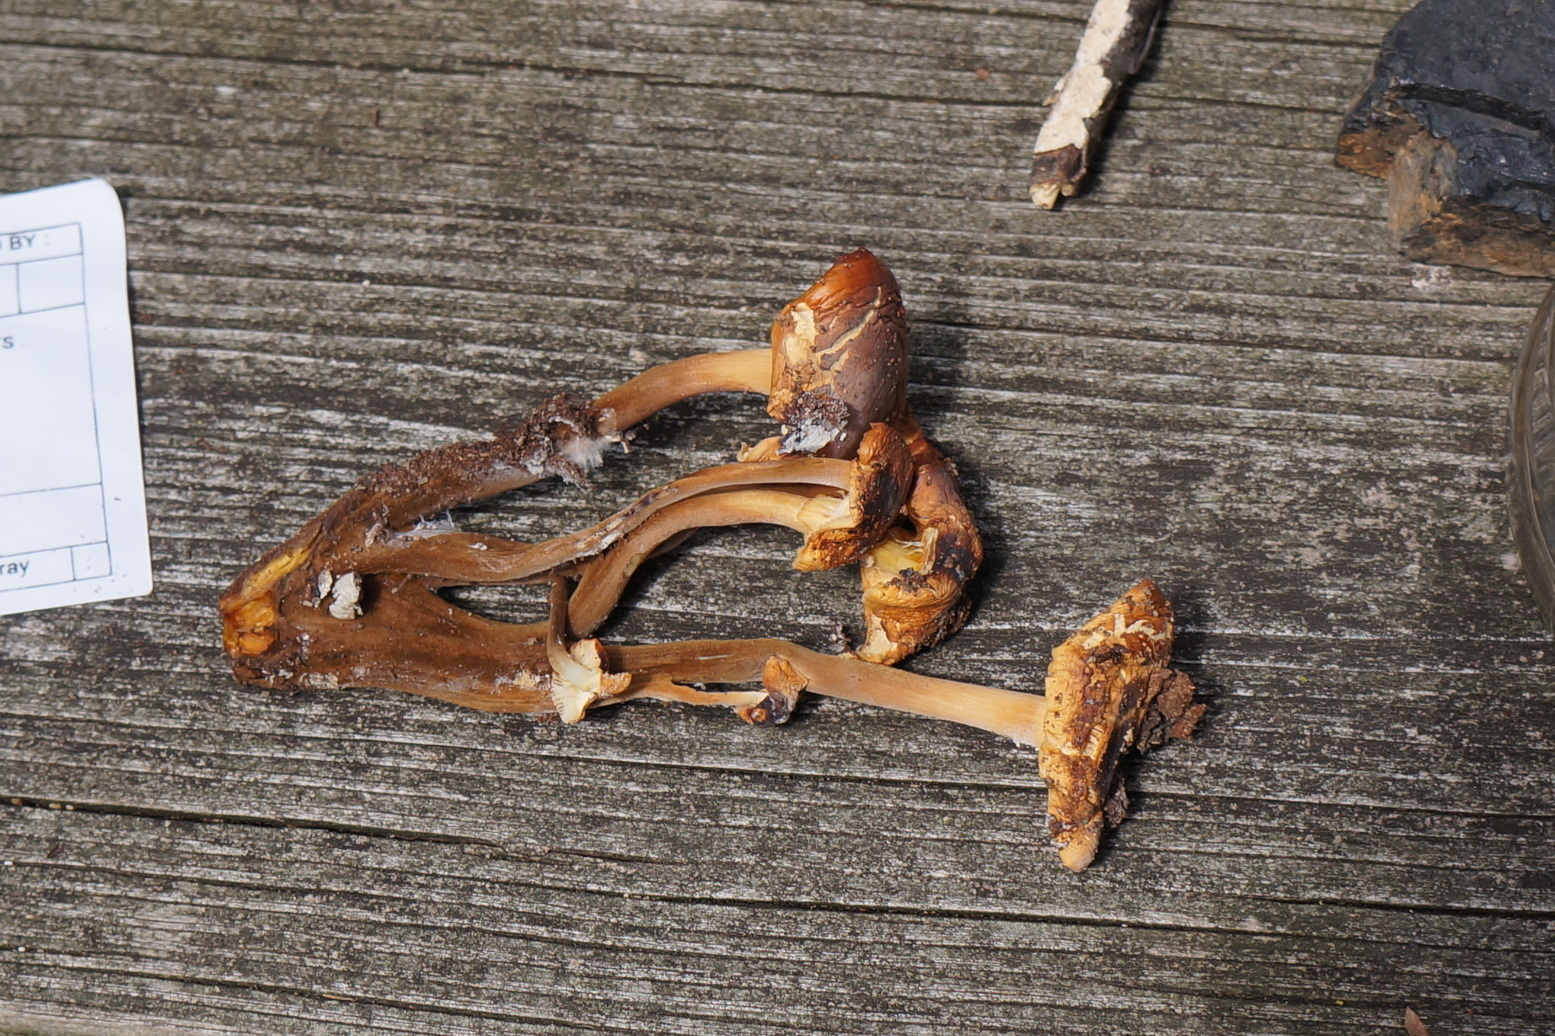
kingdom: Fungi
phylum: Basidiomycota
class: Agaricomycetes
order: Agaricales
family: Physalacriaceae
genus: Flammulina
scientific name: Flammulina velutipes
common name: Velvet shank
